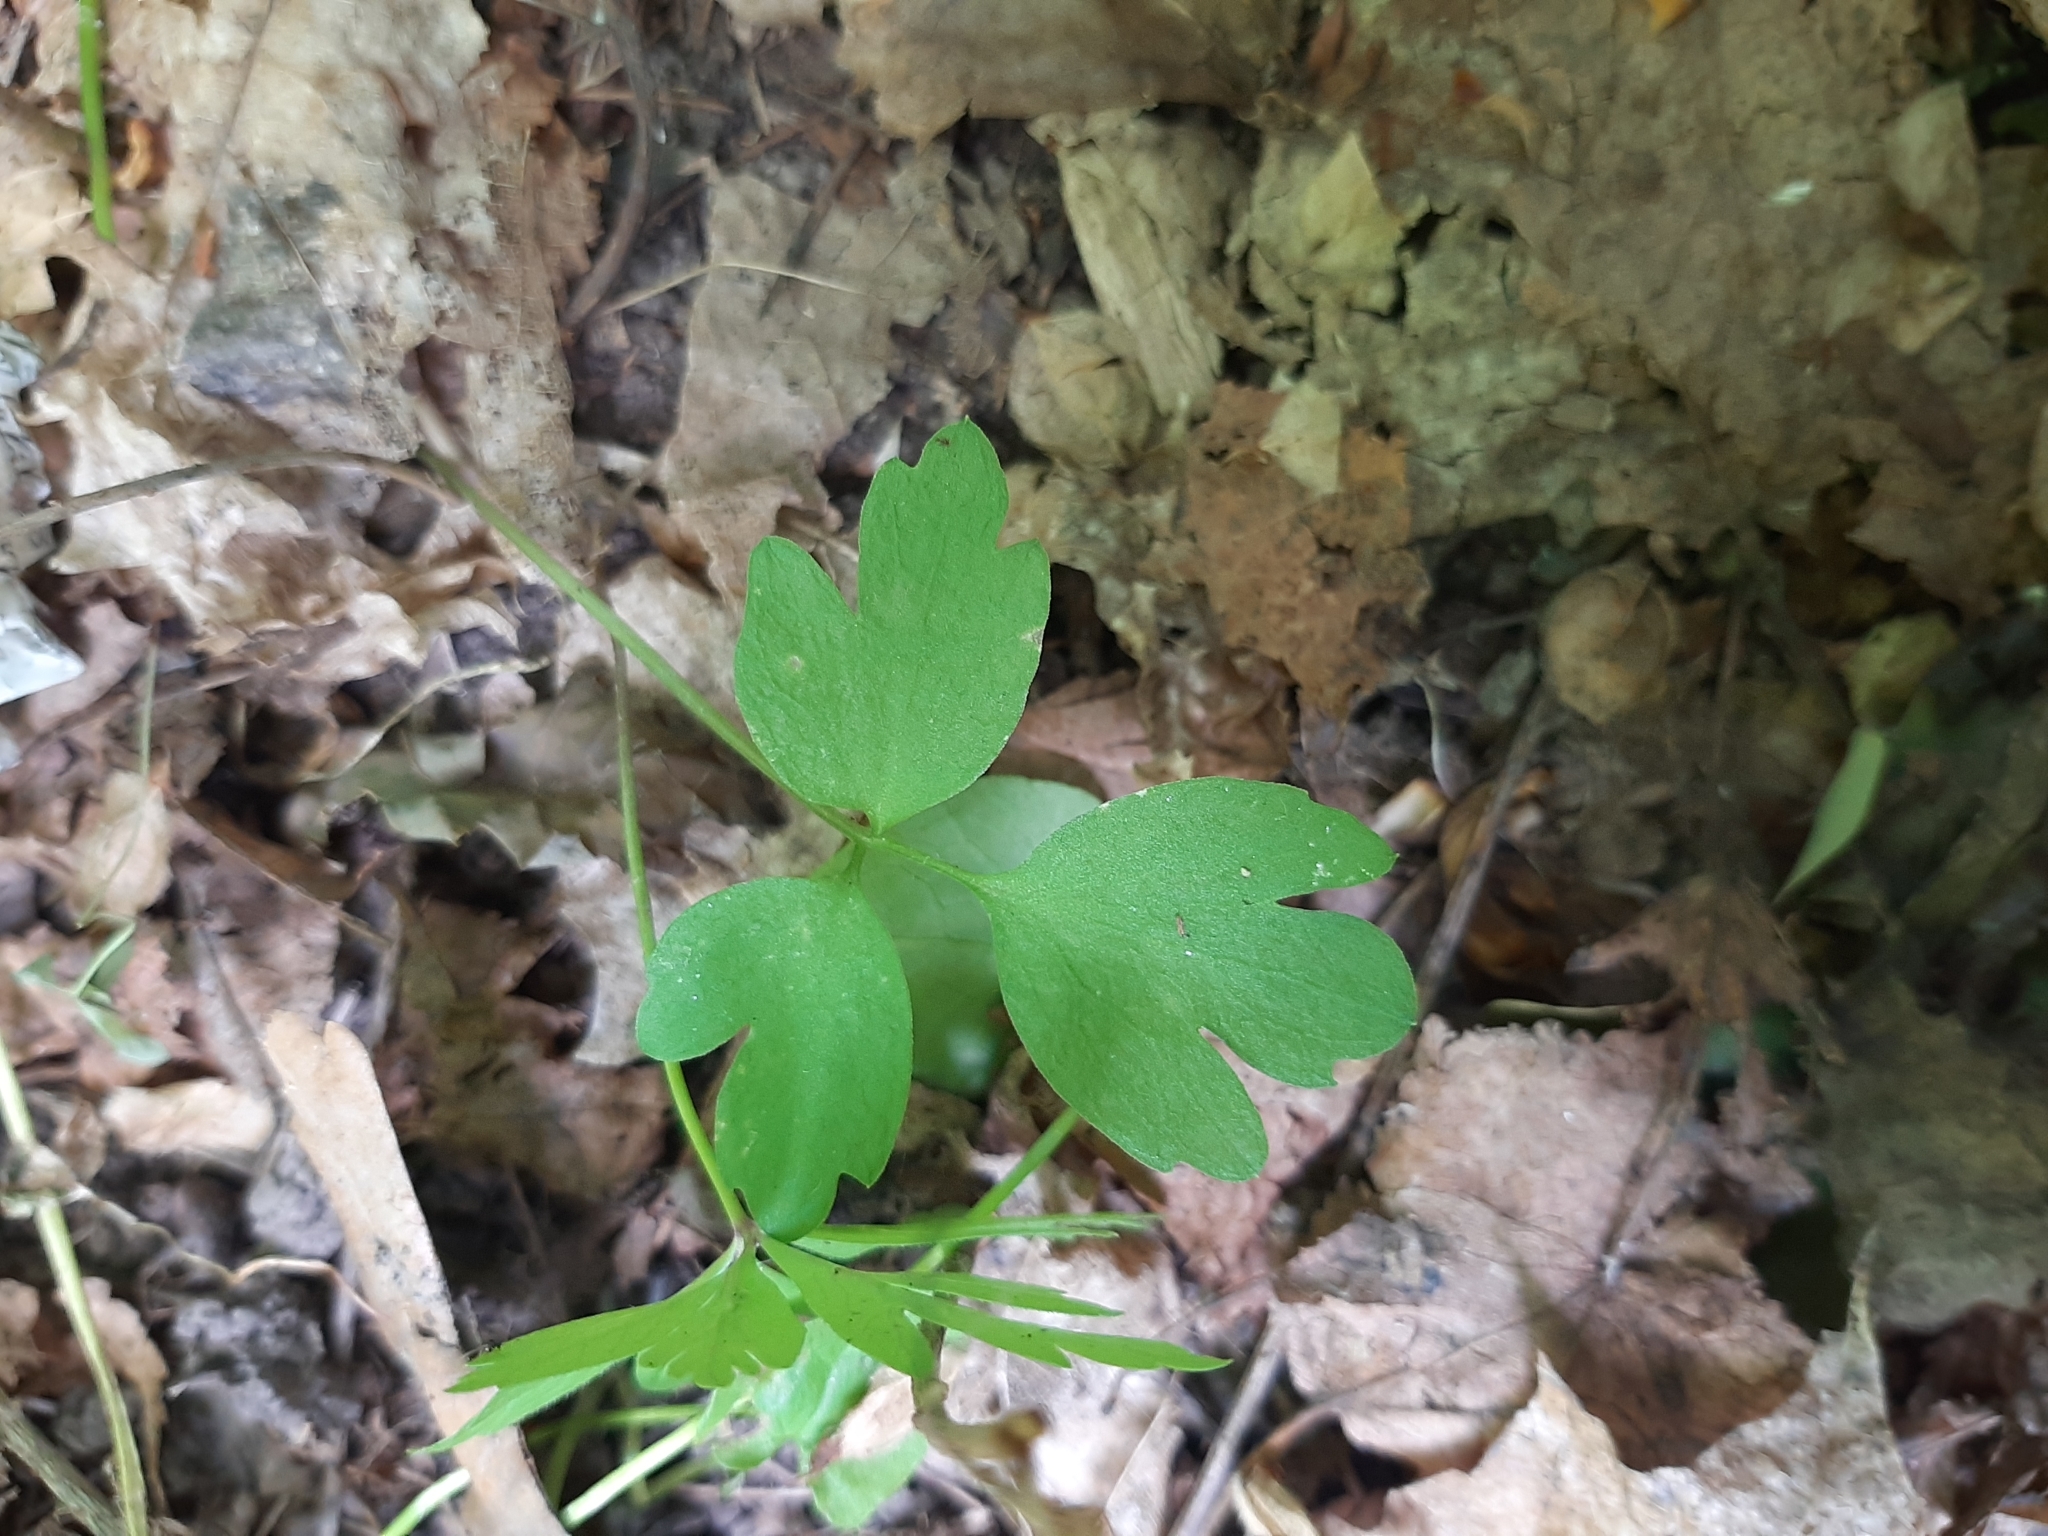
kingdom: Plantae
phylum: Tracheophyta
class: Magnoliopsida
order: Dipsacales
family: Viburnaceae
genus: Adoxa
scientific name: Adoxa moschatellina
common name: Moschatel
